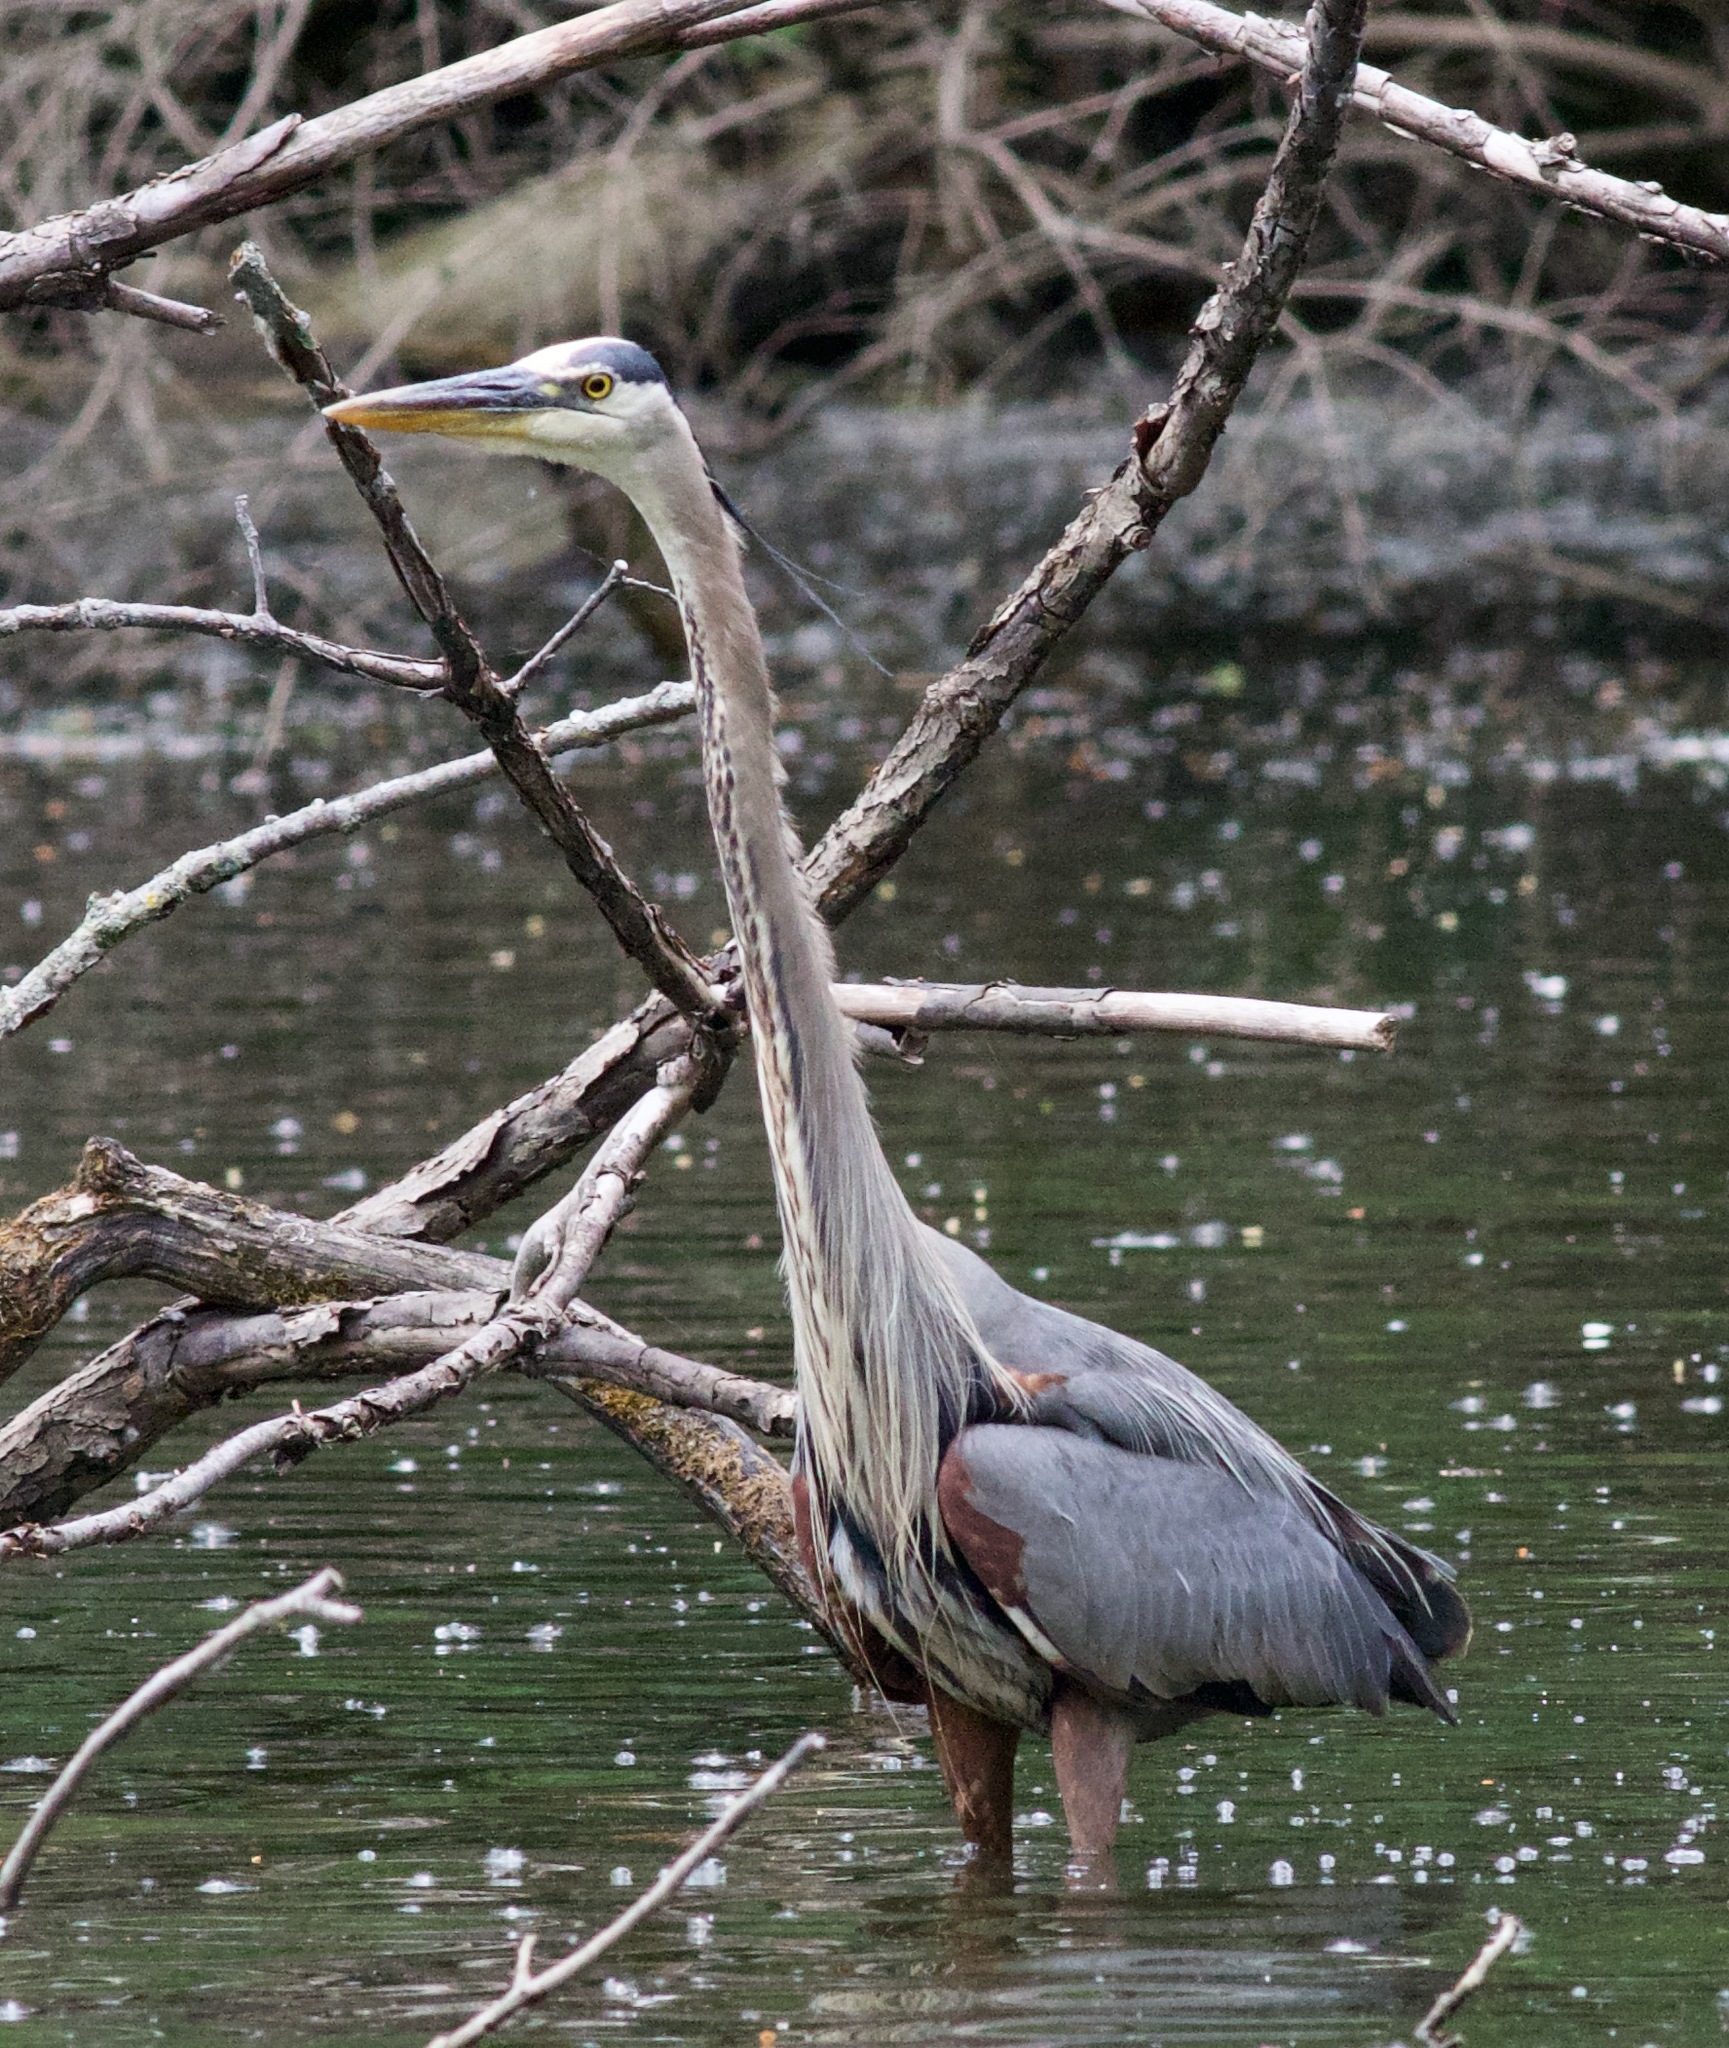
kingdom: Animalia
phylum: Chordata
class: Aves
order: Pelecaniformes
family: Ardeidae
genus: Ardea
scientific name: Ardea herodias
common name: Great blue heron
